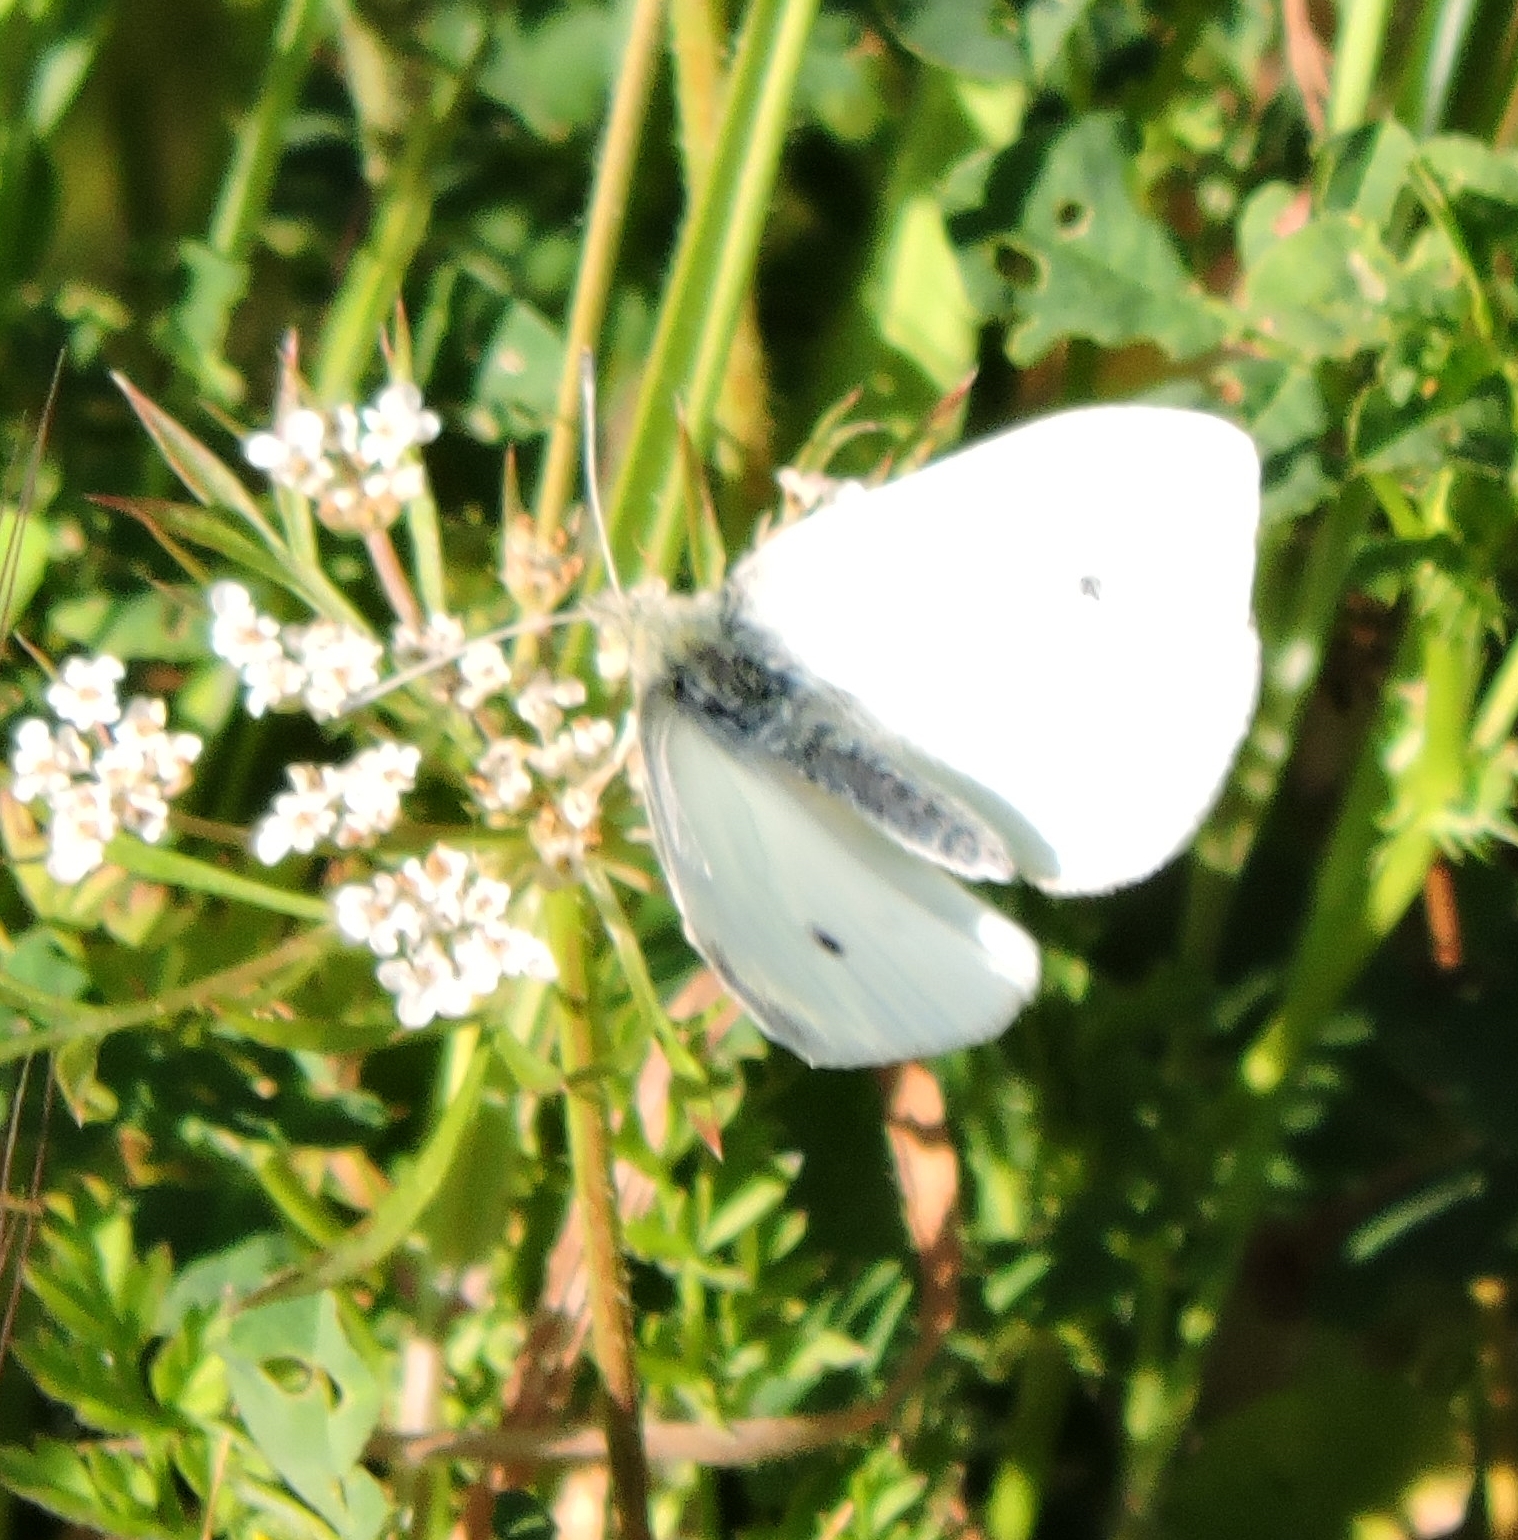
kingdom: Animalia
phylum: Arthropoda
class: Insecta
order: Lepidoptera
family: Pieridae
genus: Pieris
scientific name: Pieris rapae
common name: Small white
